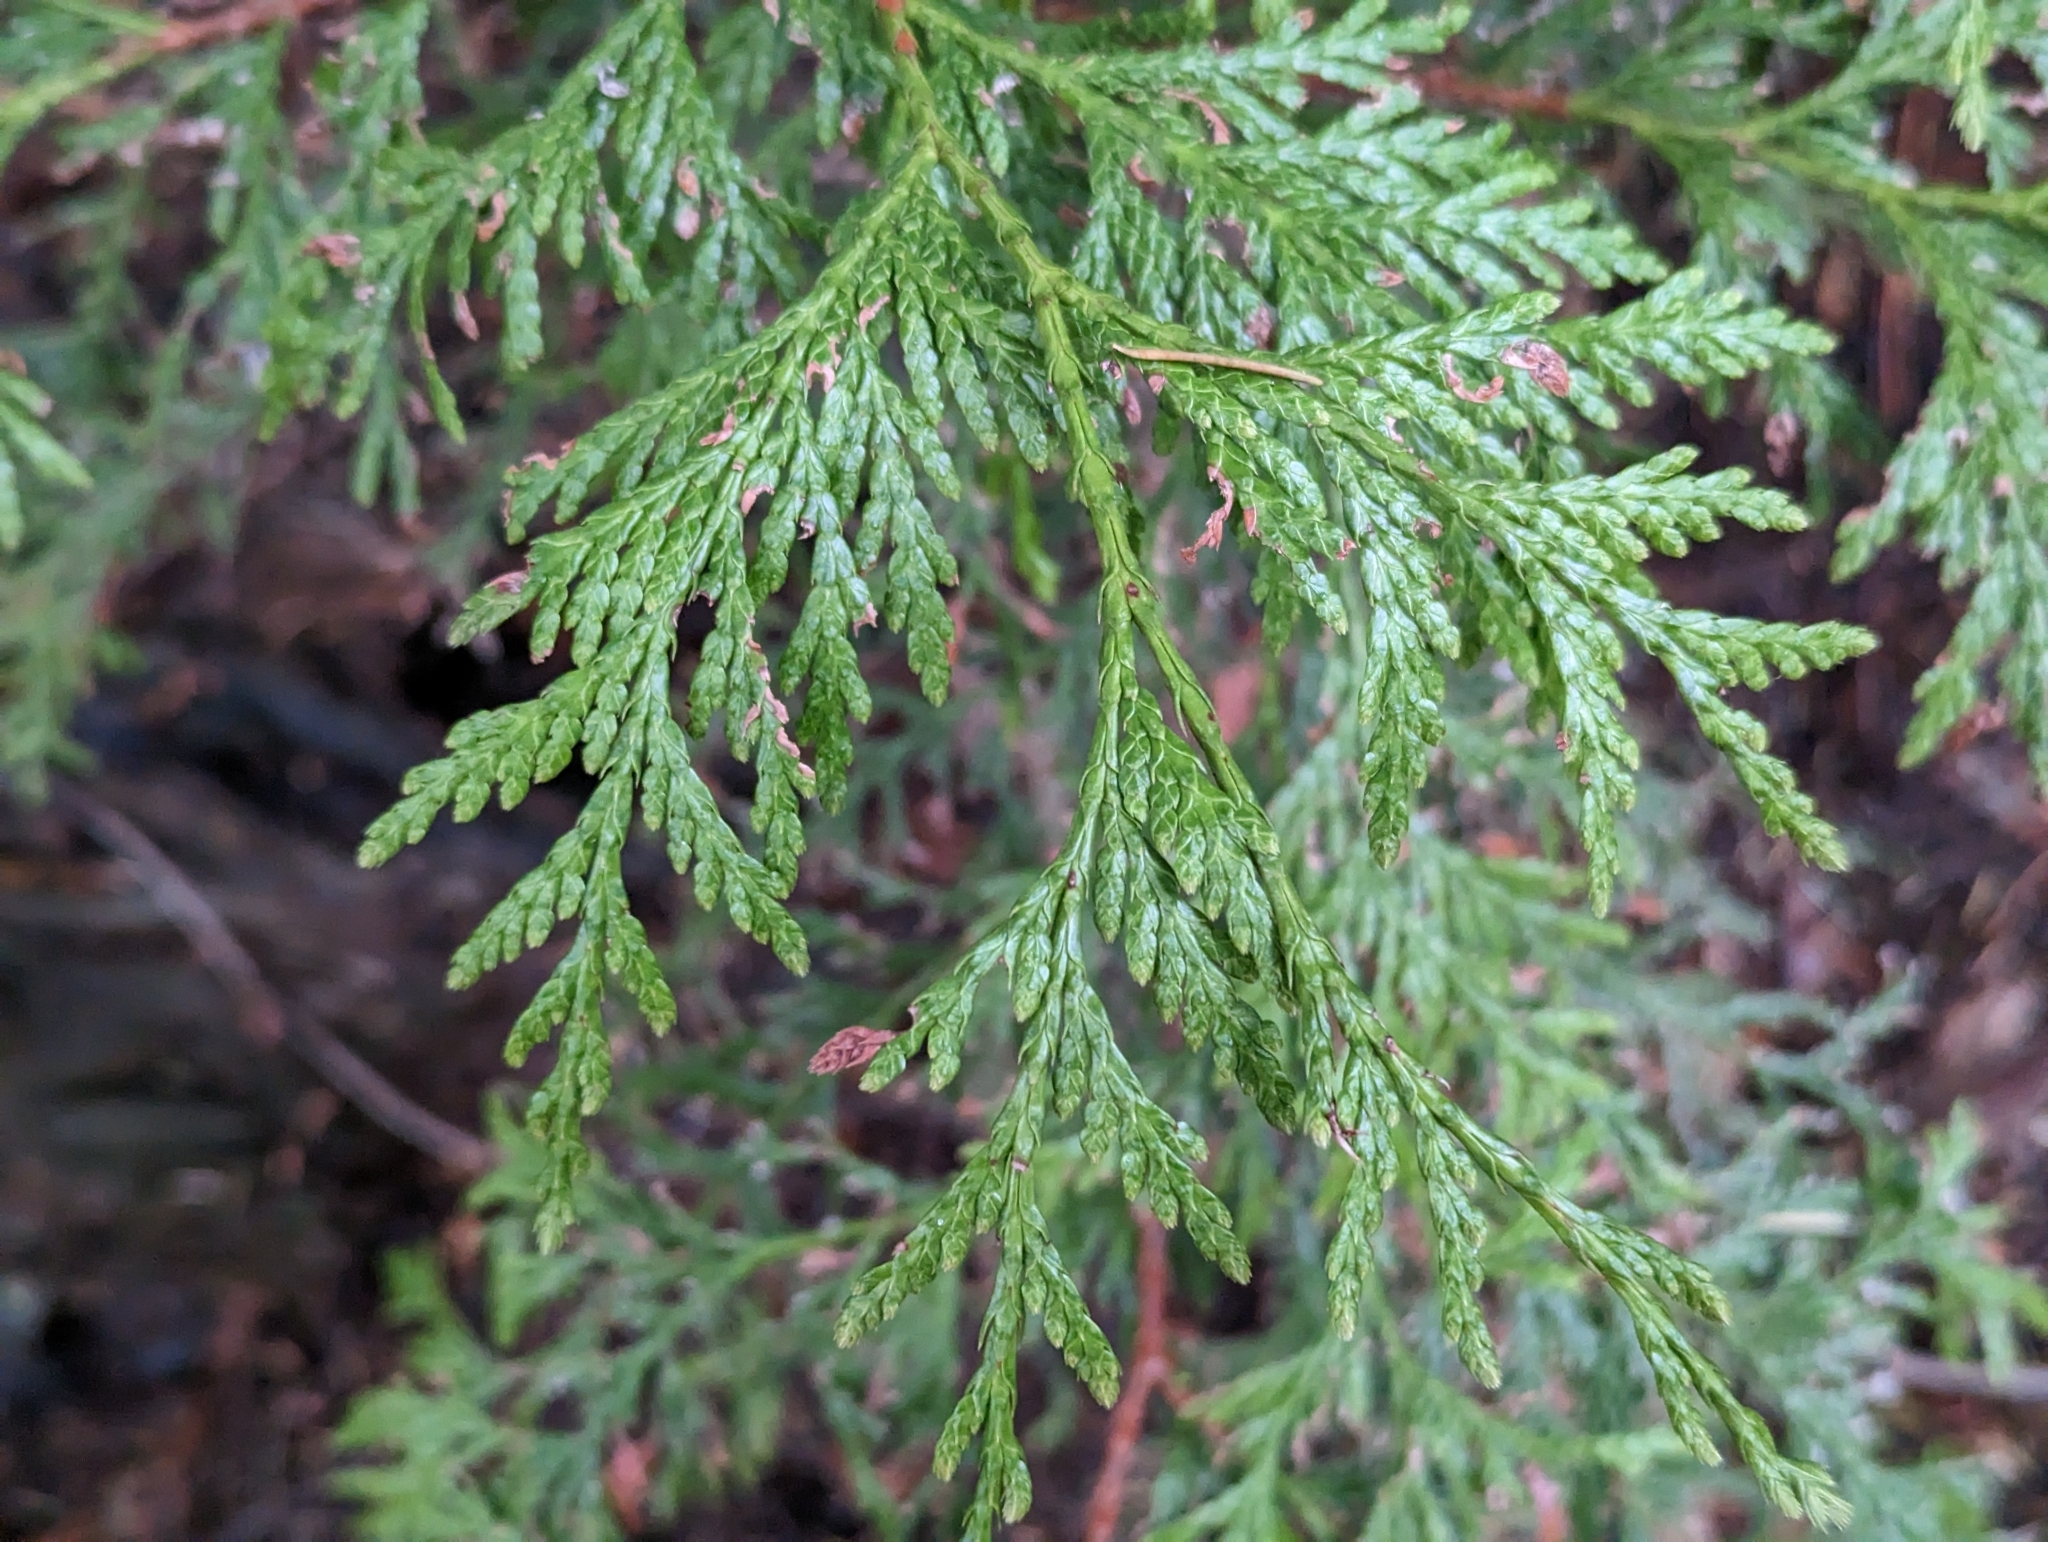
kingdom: Plantae
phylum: Tracheophyta
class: Pinopsida
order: Pinales
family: Cupressaceae
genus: Thuja
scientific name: Thuja plicata
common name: Western red-cedar
